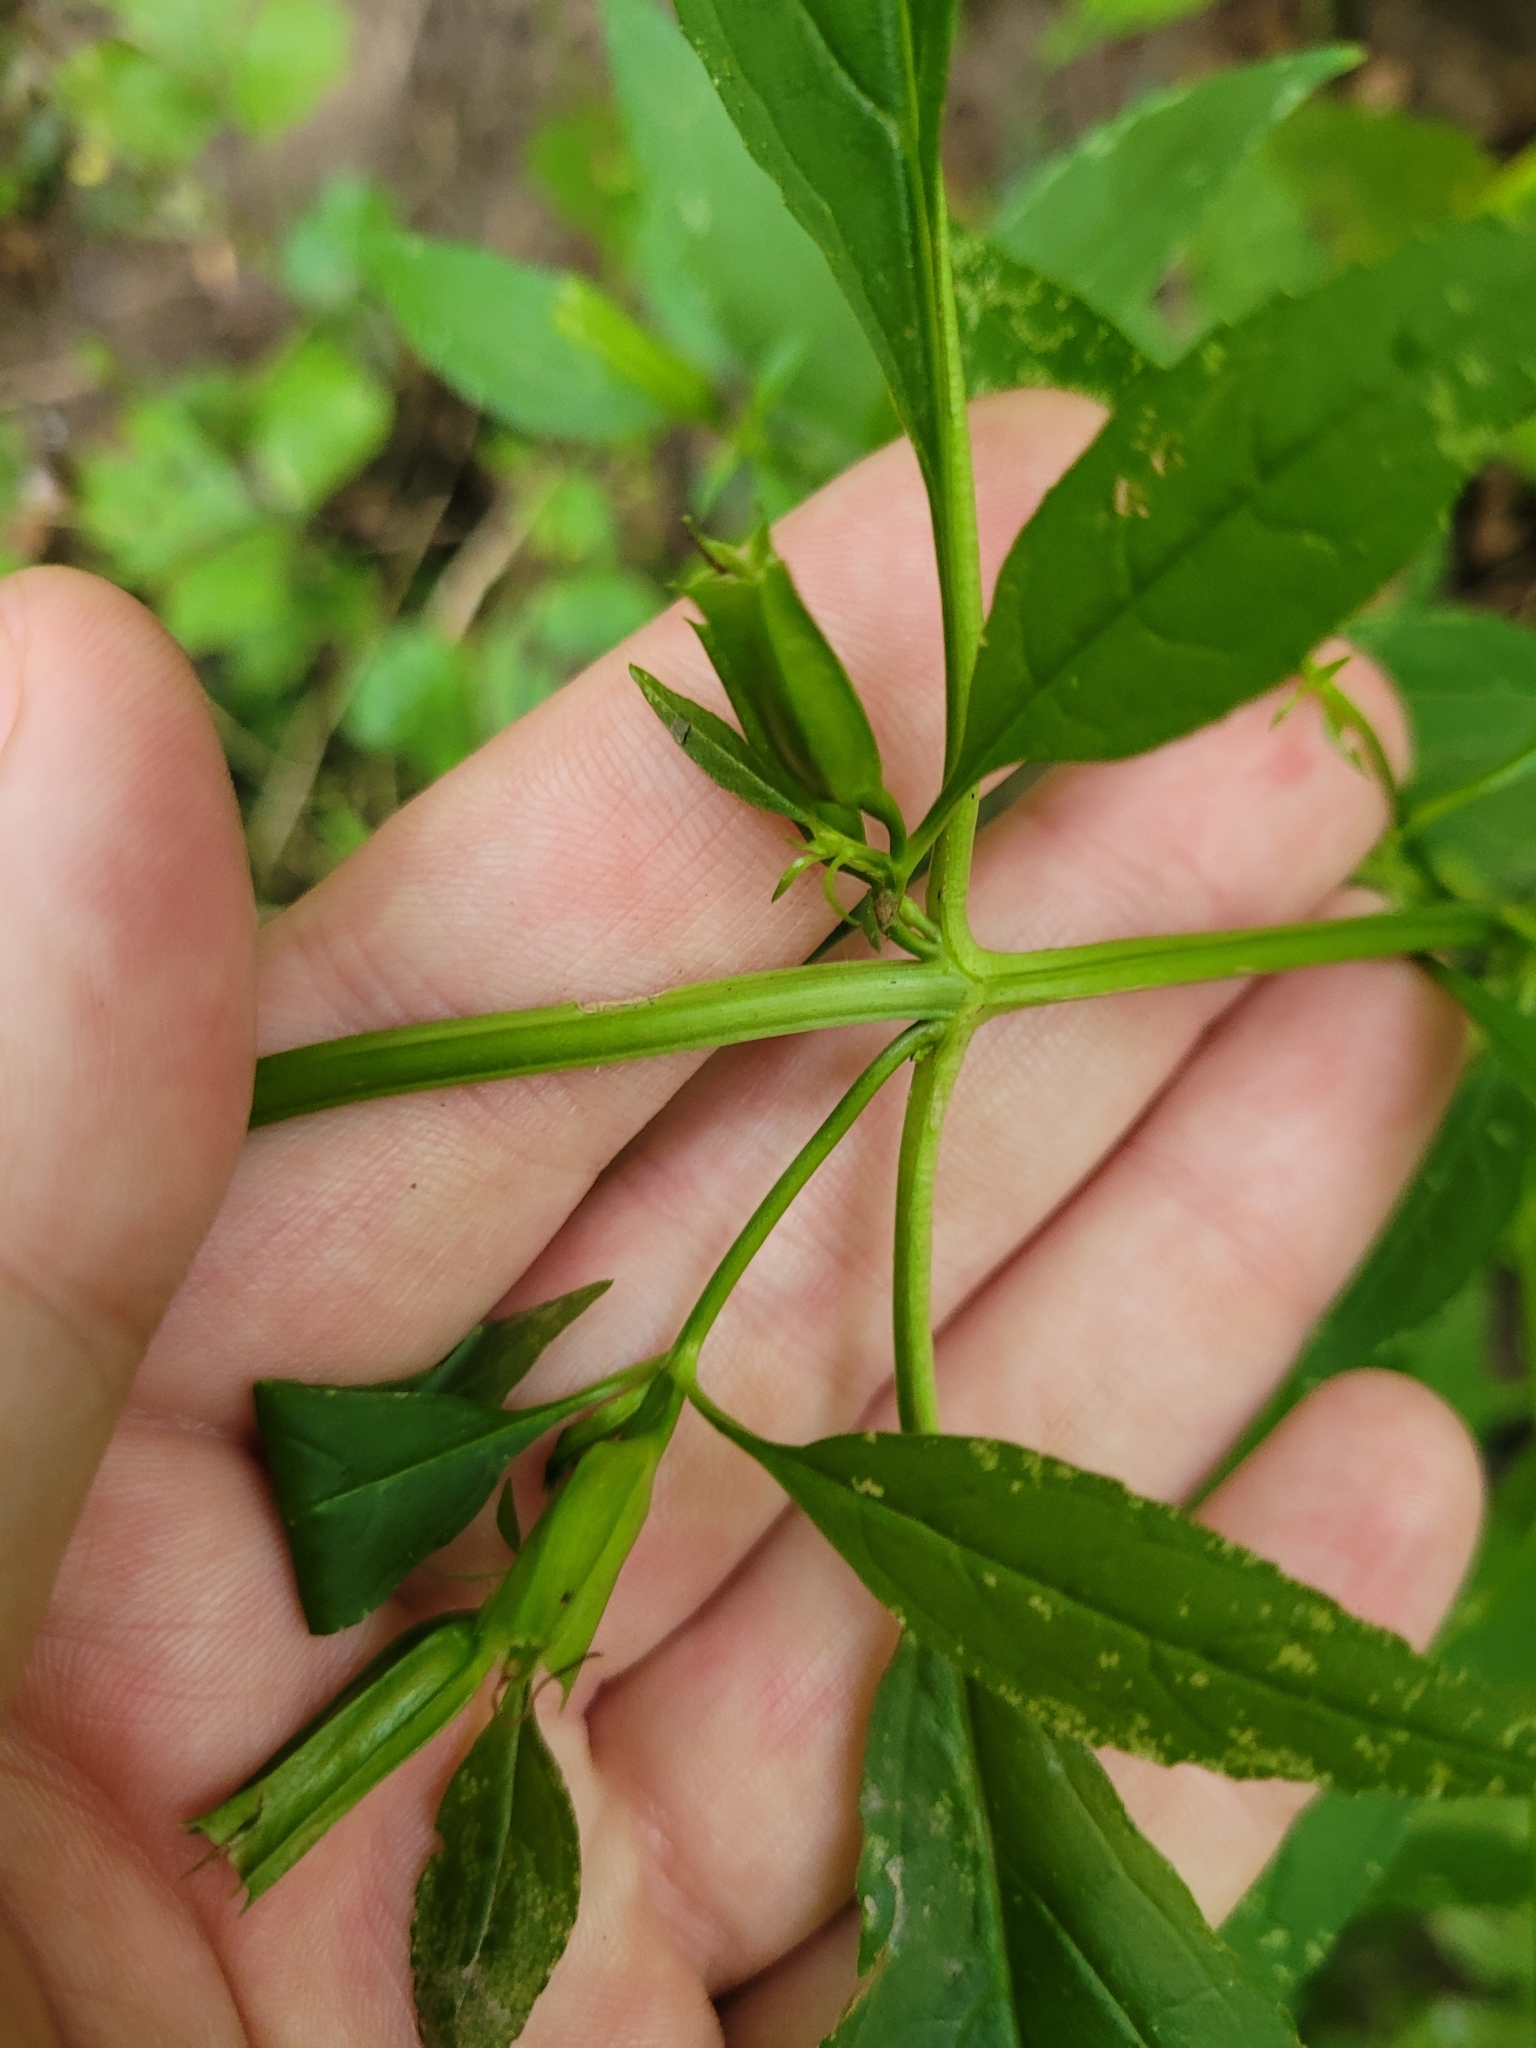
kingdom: Plantae
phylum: Tracheophyta
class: Magnoliopsida
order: Lamiales
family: Phrymaceae
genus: Mimulus
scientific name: Mimulus alatus
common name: Sharp-wing monkey-flower
